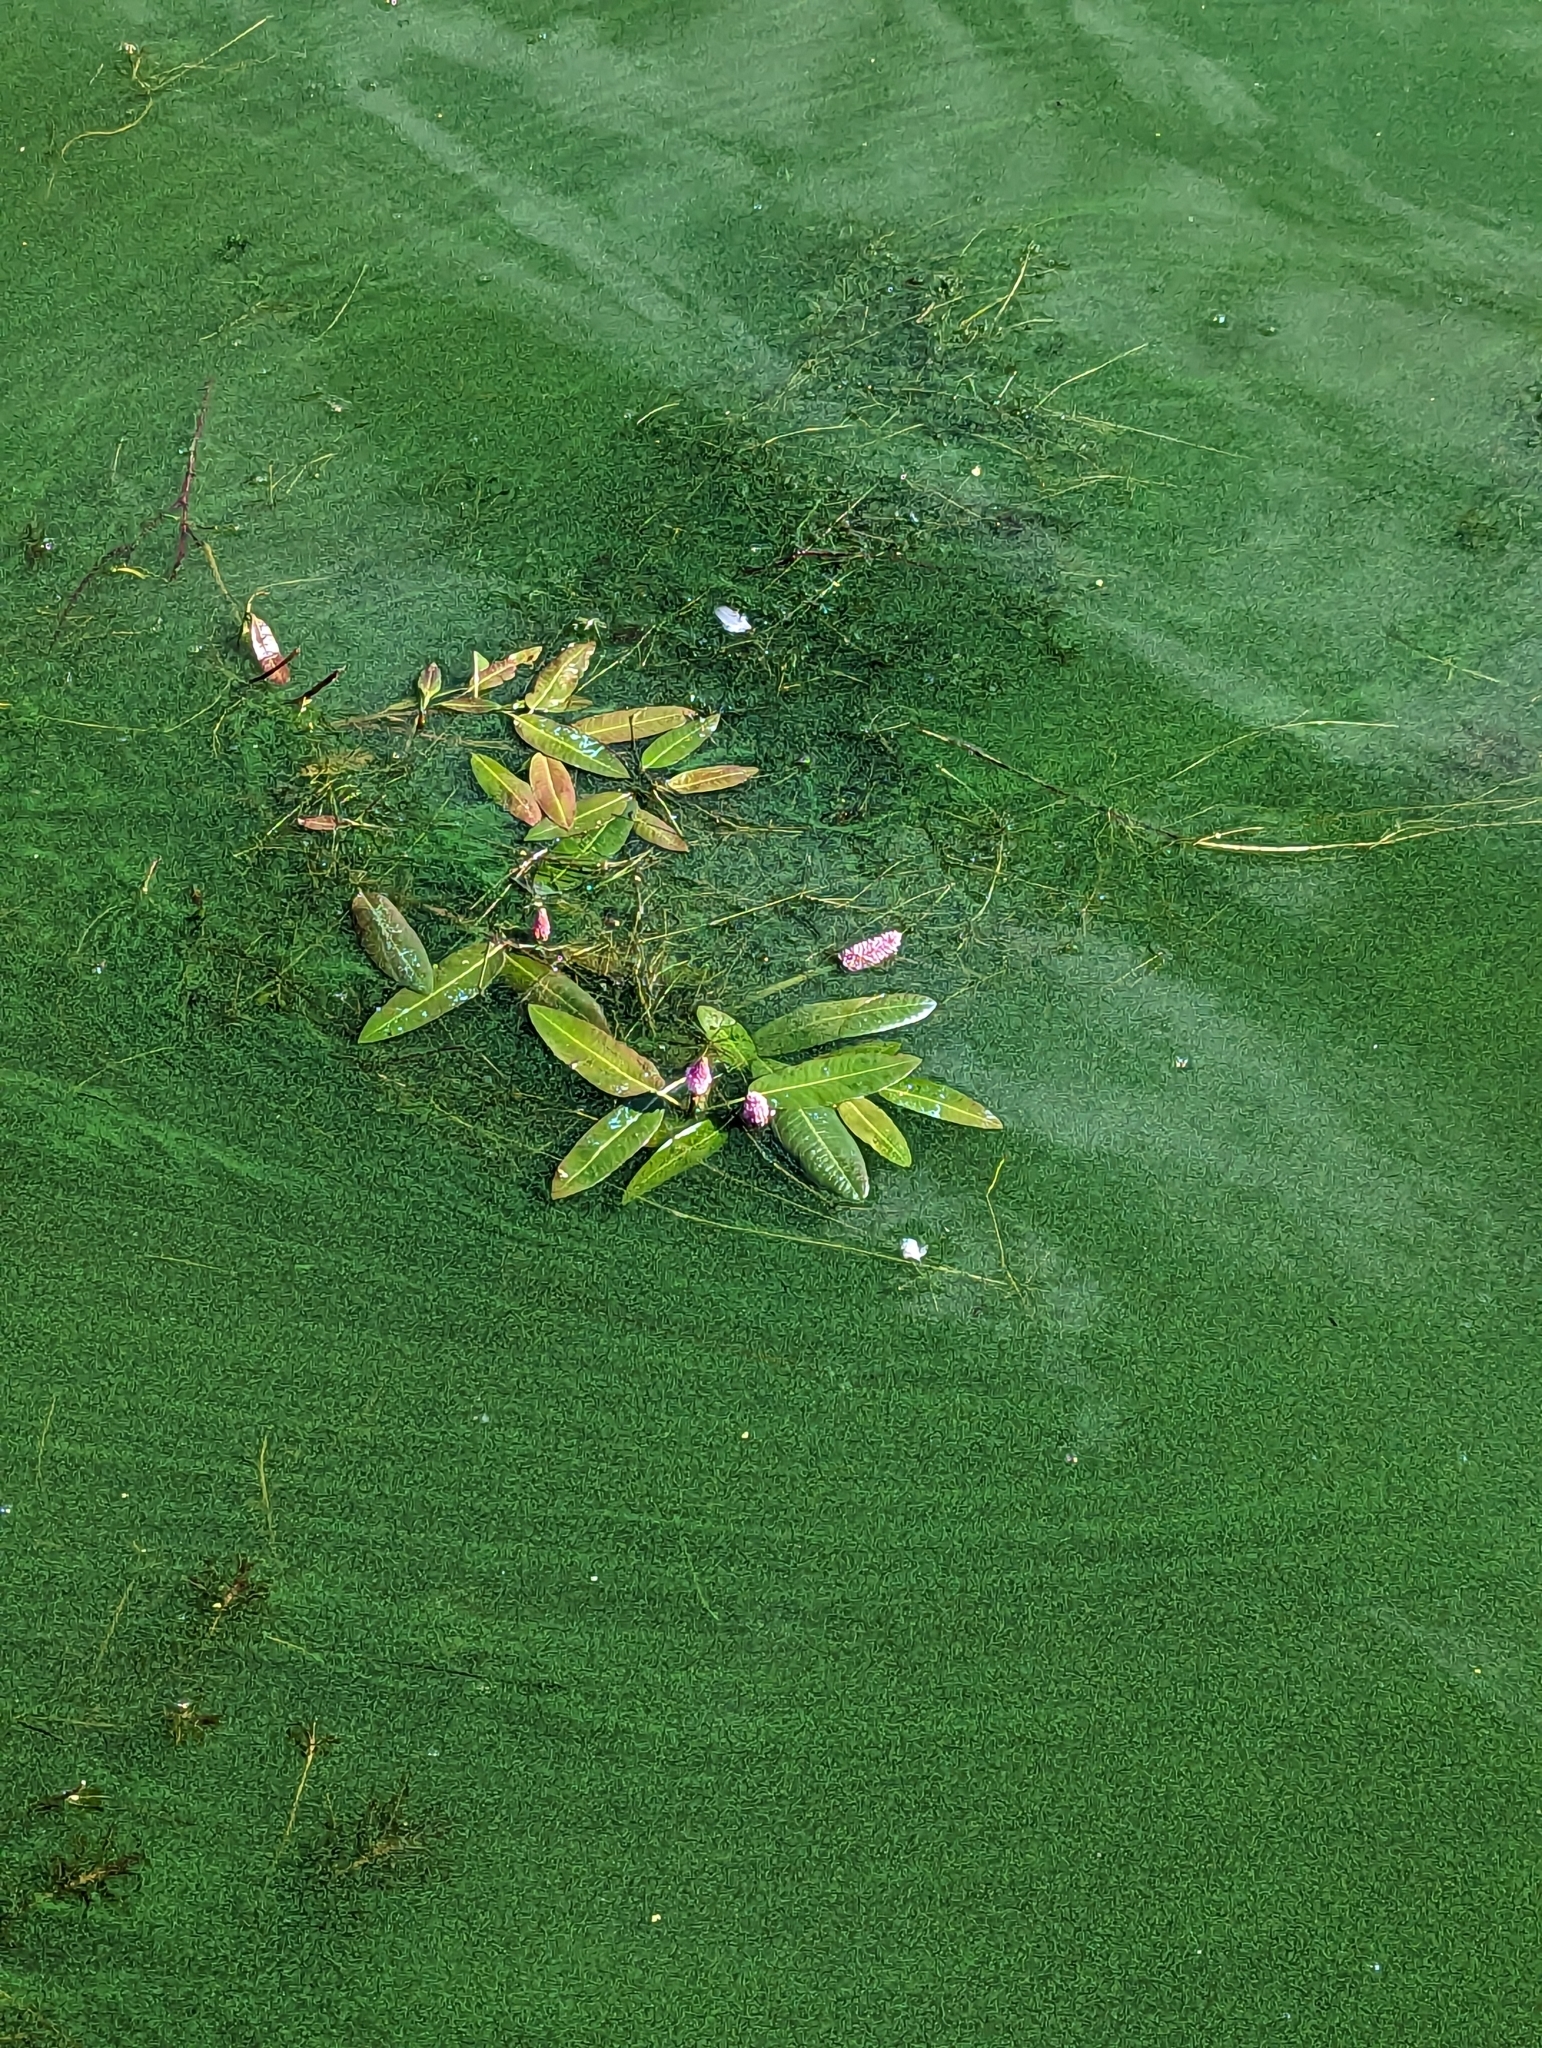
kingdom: Plantae
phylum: Tracheophyta
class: Magnoliopsida
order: Caryophyllales
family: Polygonaceae
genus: Persicaria
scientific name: Persicaria amphibia
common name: Amphibious bistort
